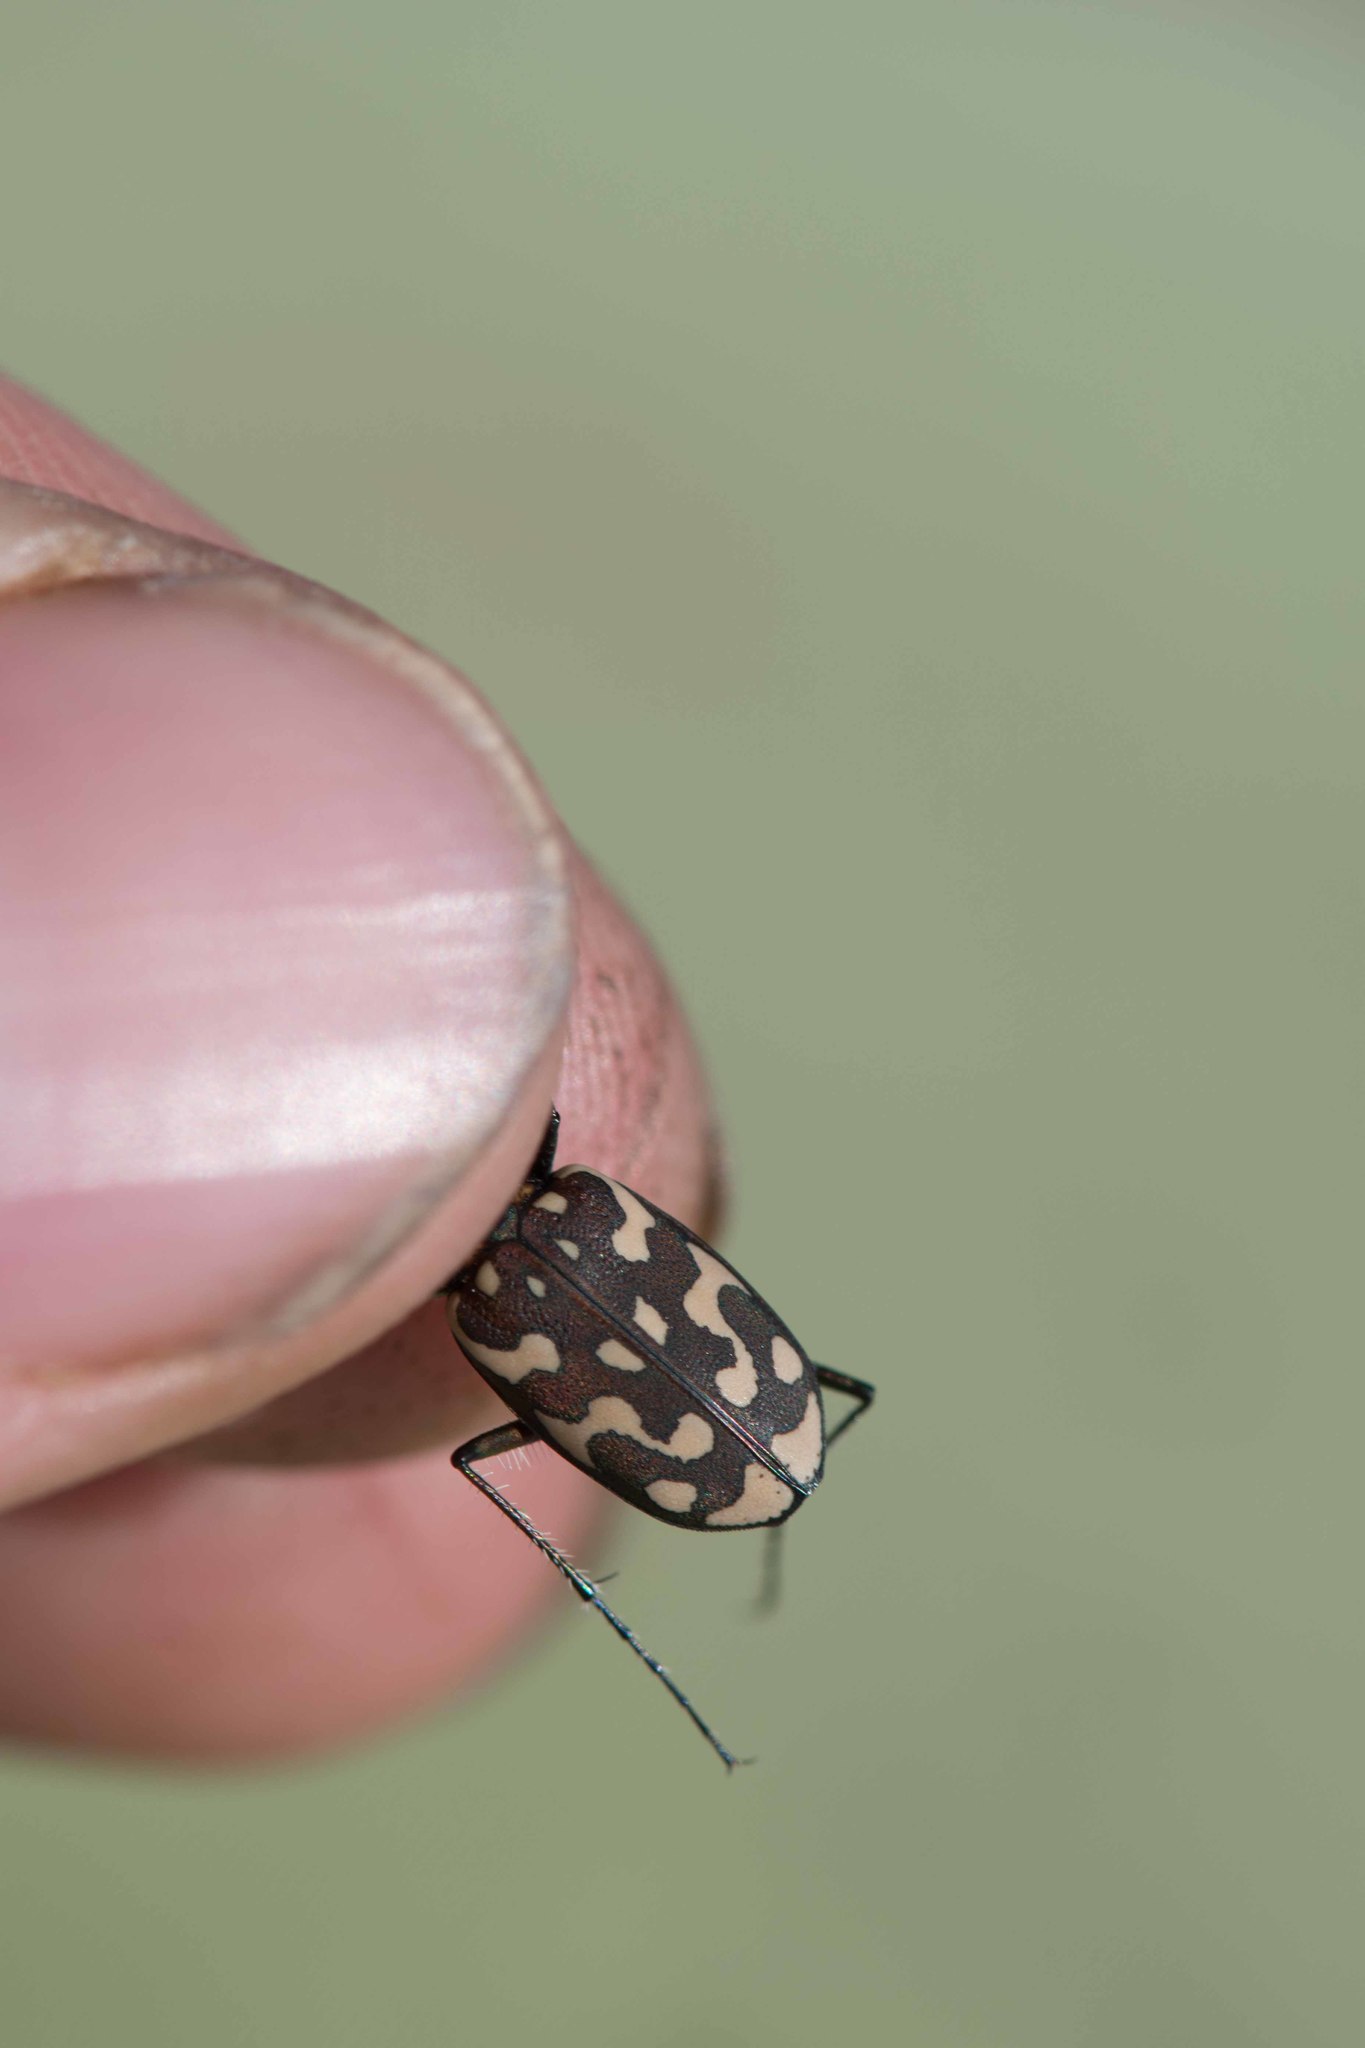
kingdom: Animalia
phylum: Arthropoda
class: Insecta
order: Coleoptera
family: Carabidae
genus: Lophyra
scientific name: Lophyra flexuosa
